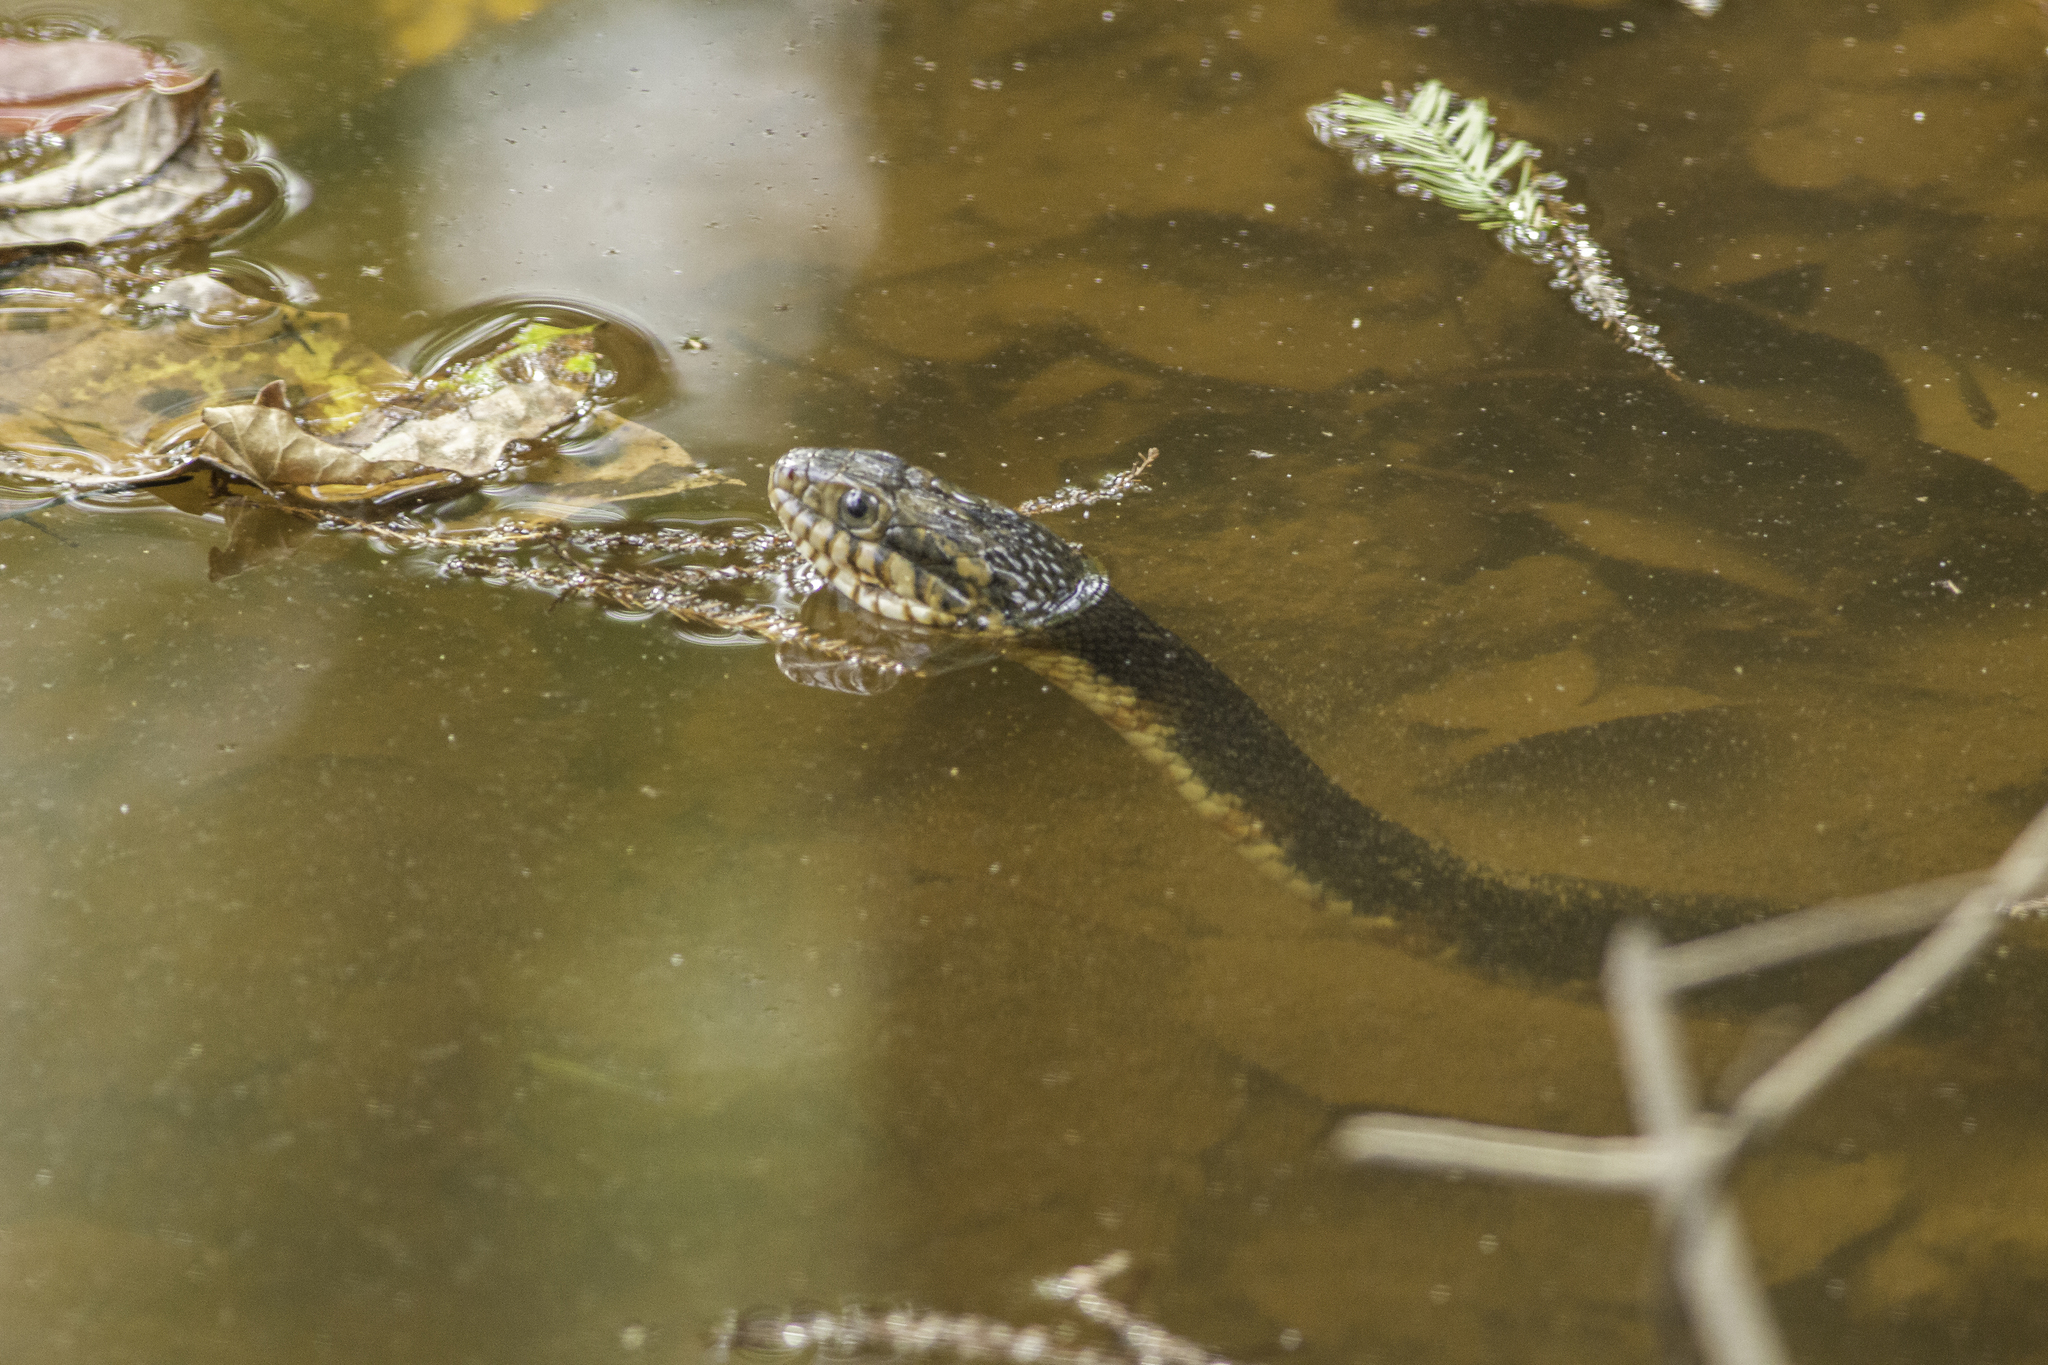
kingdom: Animalia
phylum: Chordata
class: Squamata
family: Colubridae
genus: Nerodia
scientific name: Nerodia fasciata
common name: Southern water snake
